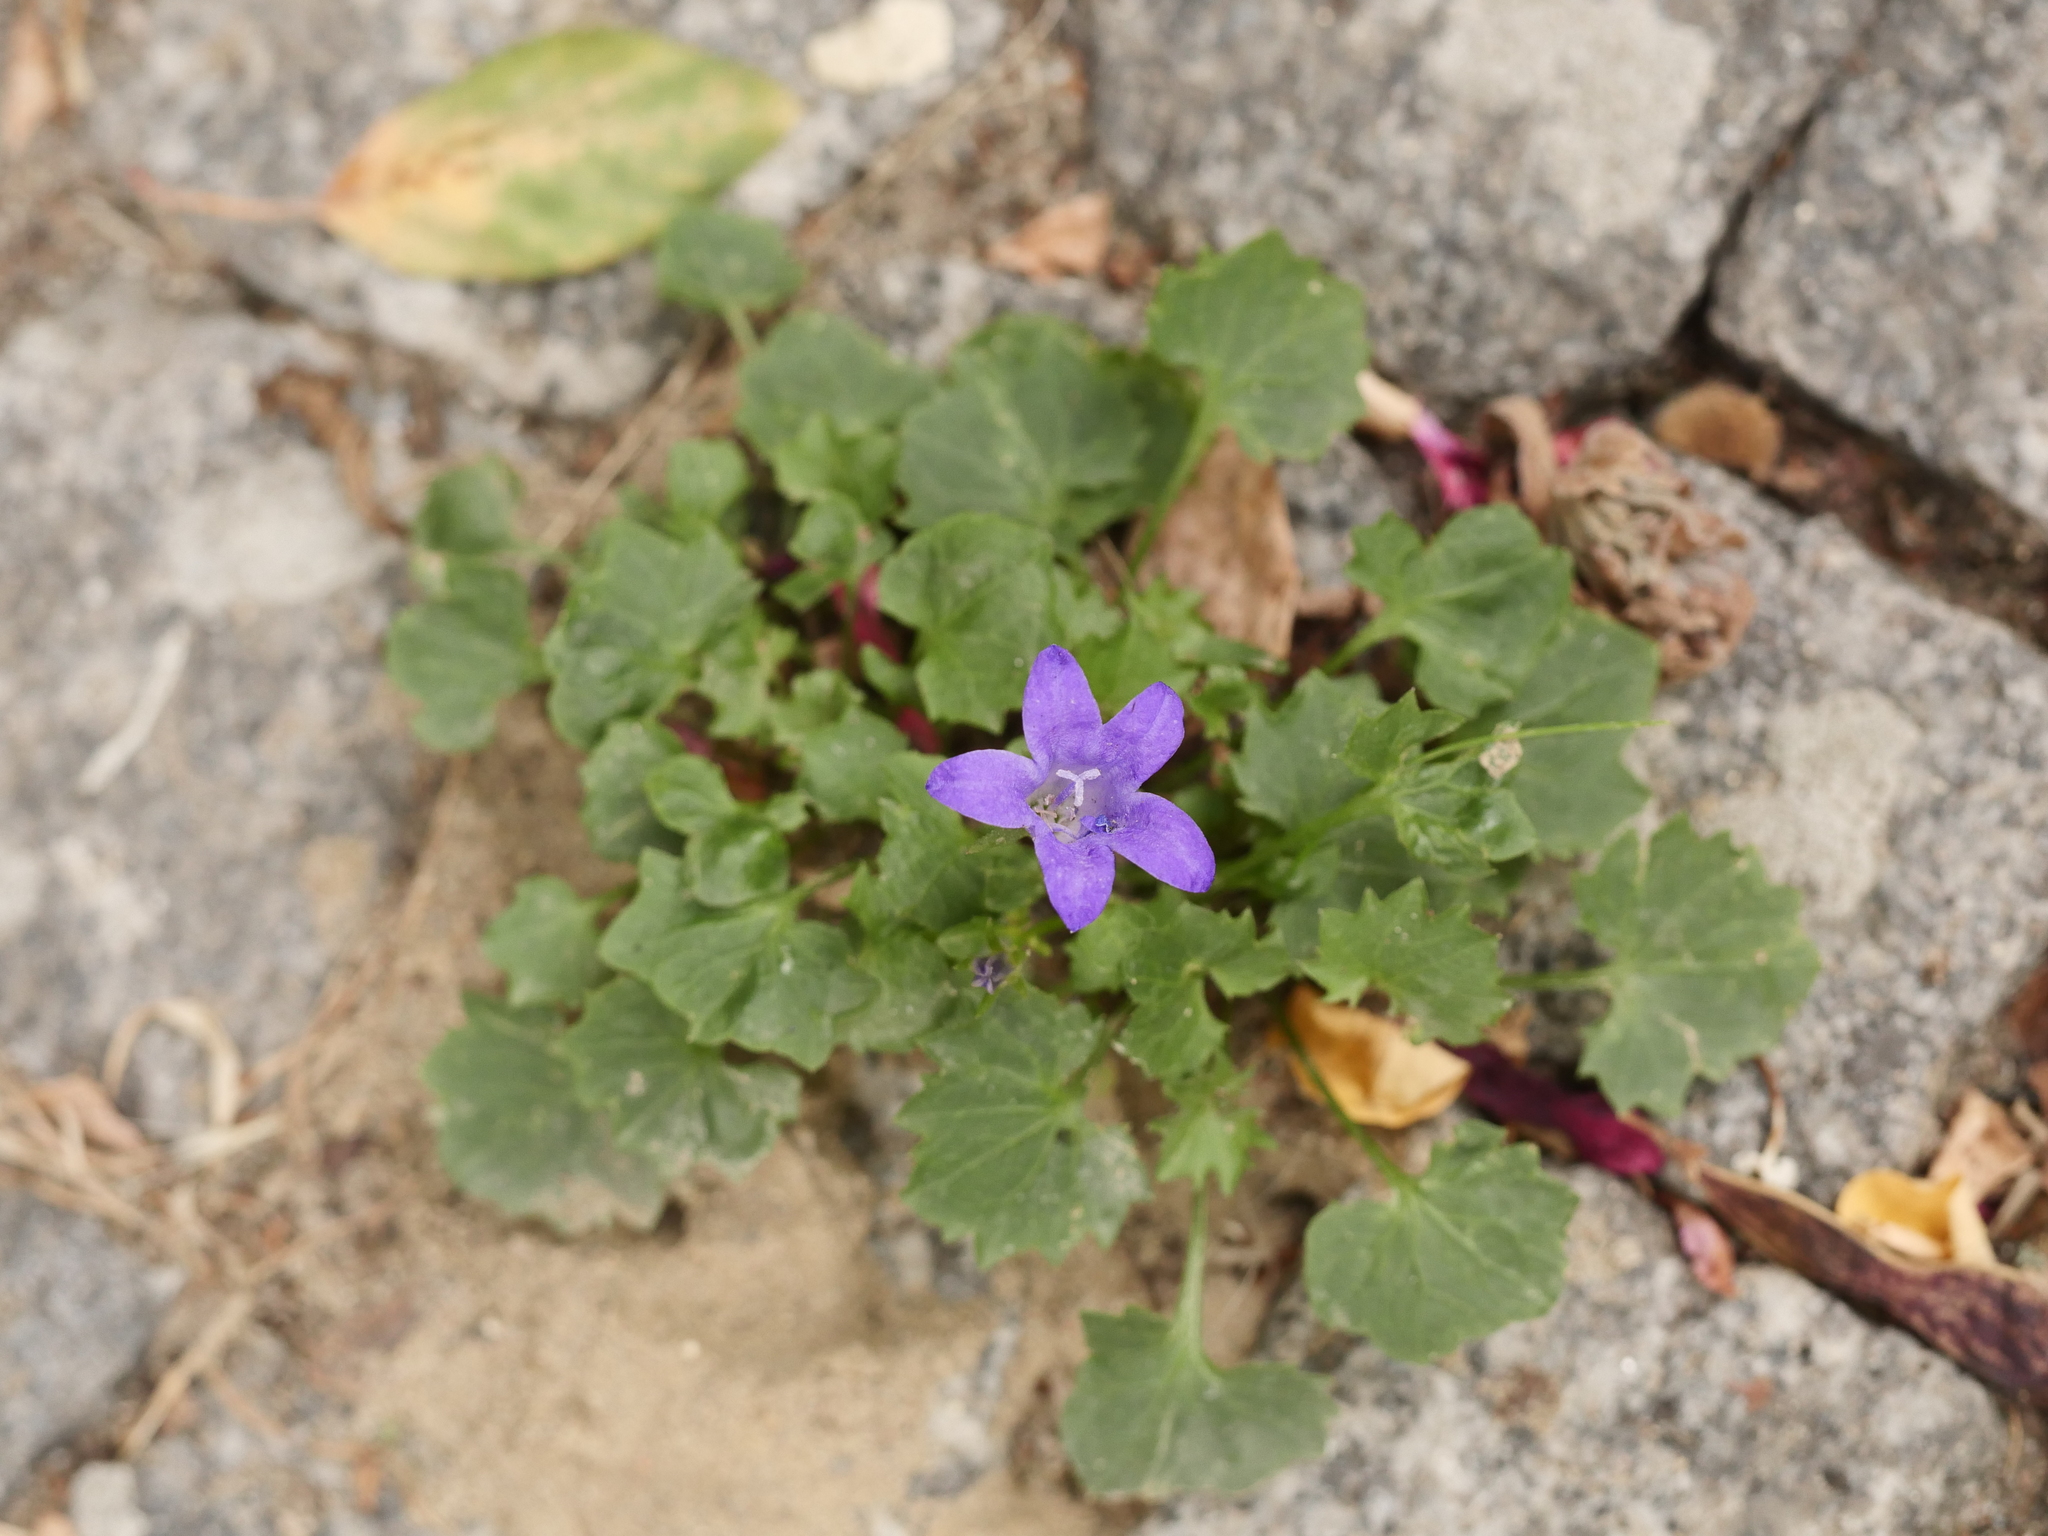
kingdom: Plantae
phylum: Tracheophyta
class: Magnoliopsida
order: Asterales
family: Campanulaceae
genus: Campanula
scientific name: Campanula poscharskyana
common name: Trailing bellflower
